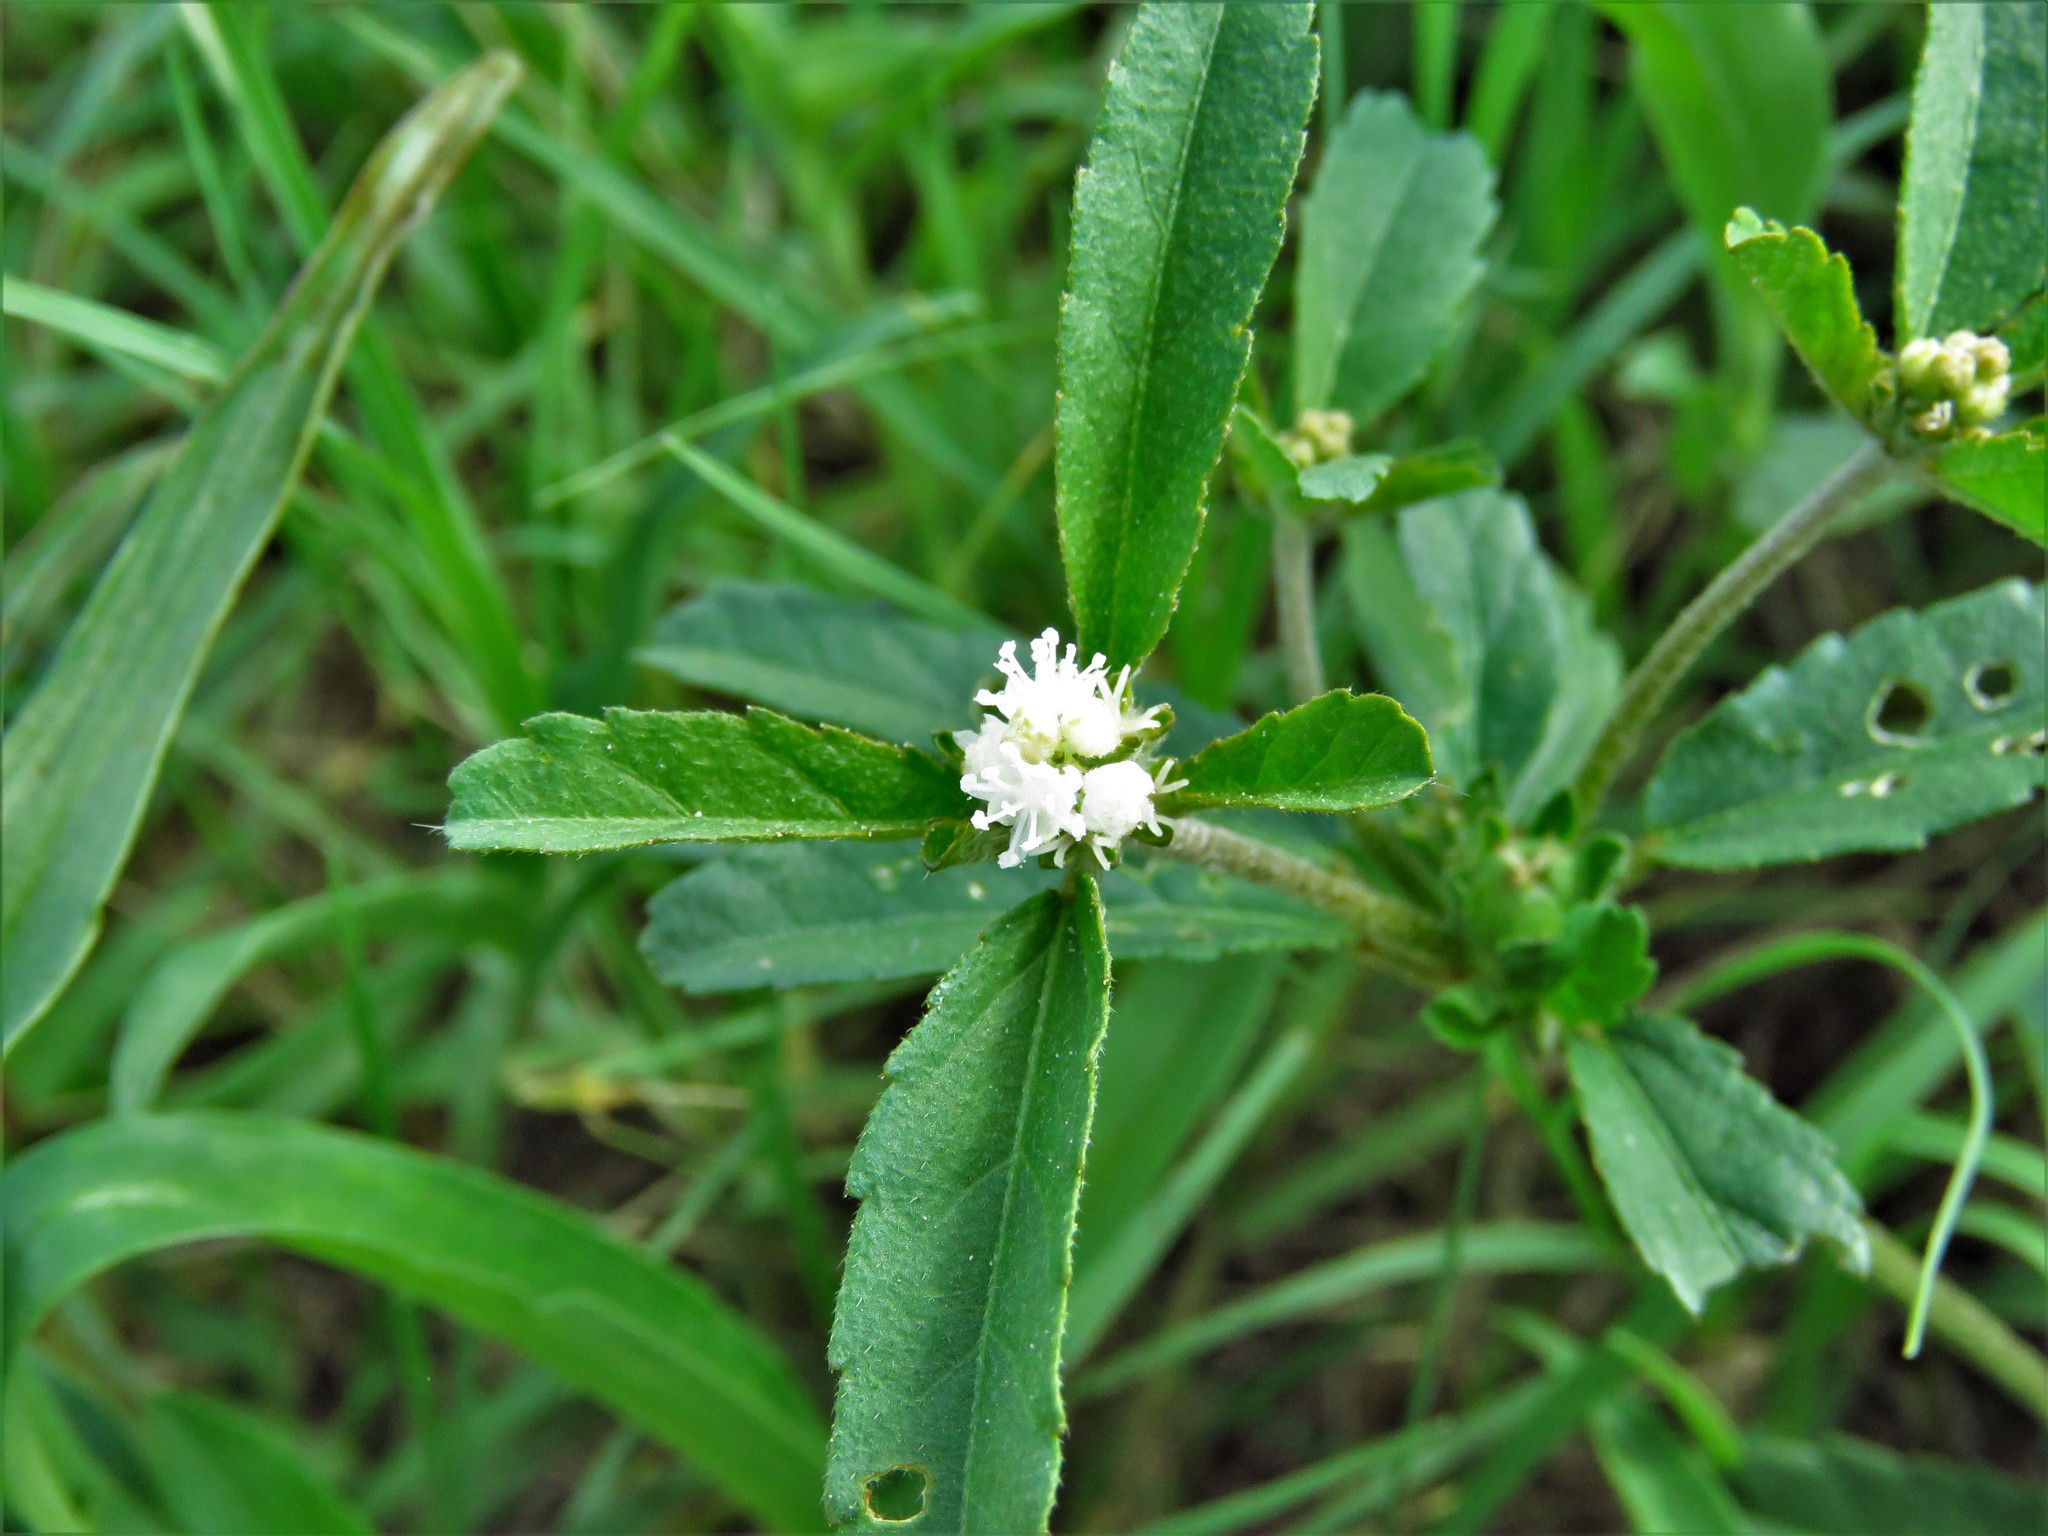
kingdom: Plantae
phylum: Tracheophyta
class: Magnoliopsida
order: Malpighiales
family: Euphorbiaceae
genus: Croton
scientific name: Croton glandulosus
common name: Tropic croton
